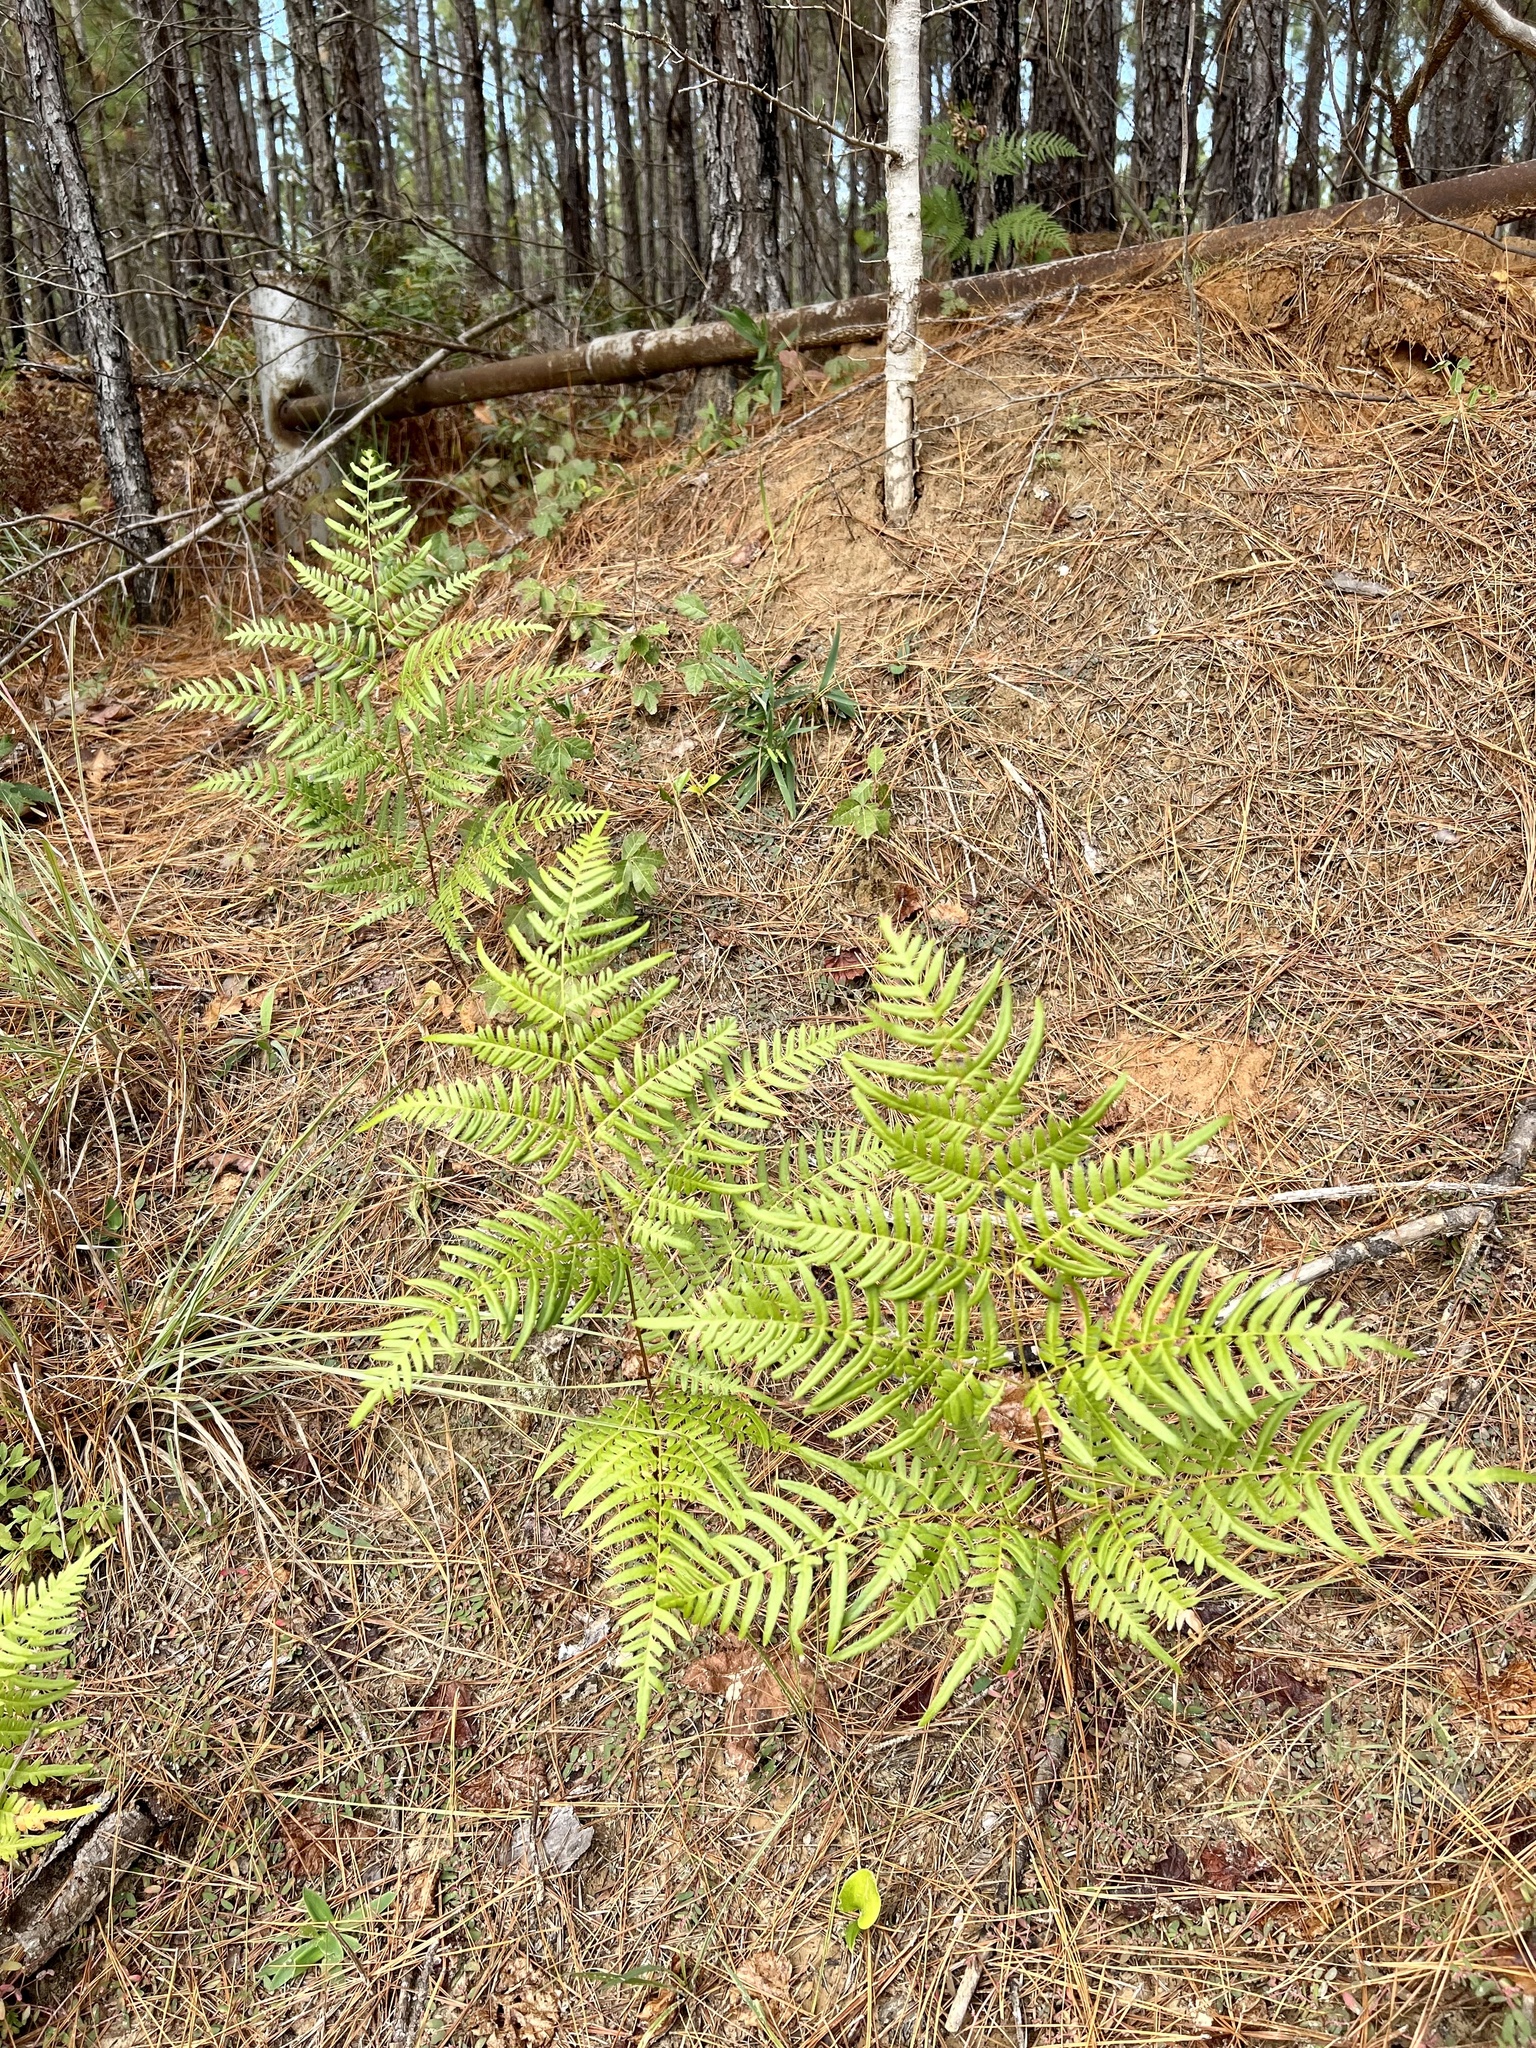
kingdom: Plantae
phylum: Tracheophyta
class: Polypodiopsida
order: Polypodiales
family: Dennstaedtiaceae
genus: Pteridium
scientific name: Pteridium
